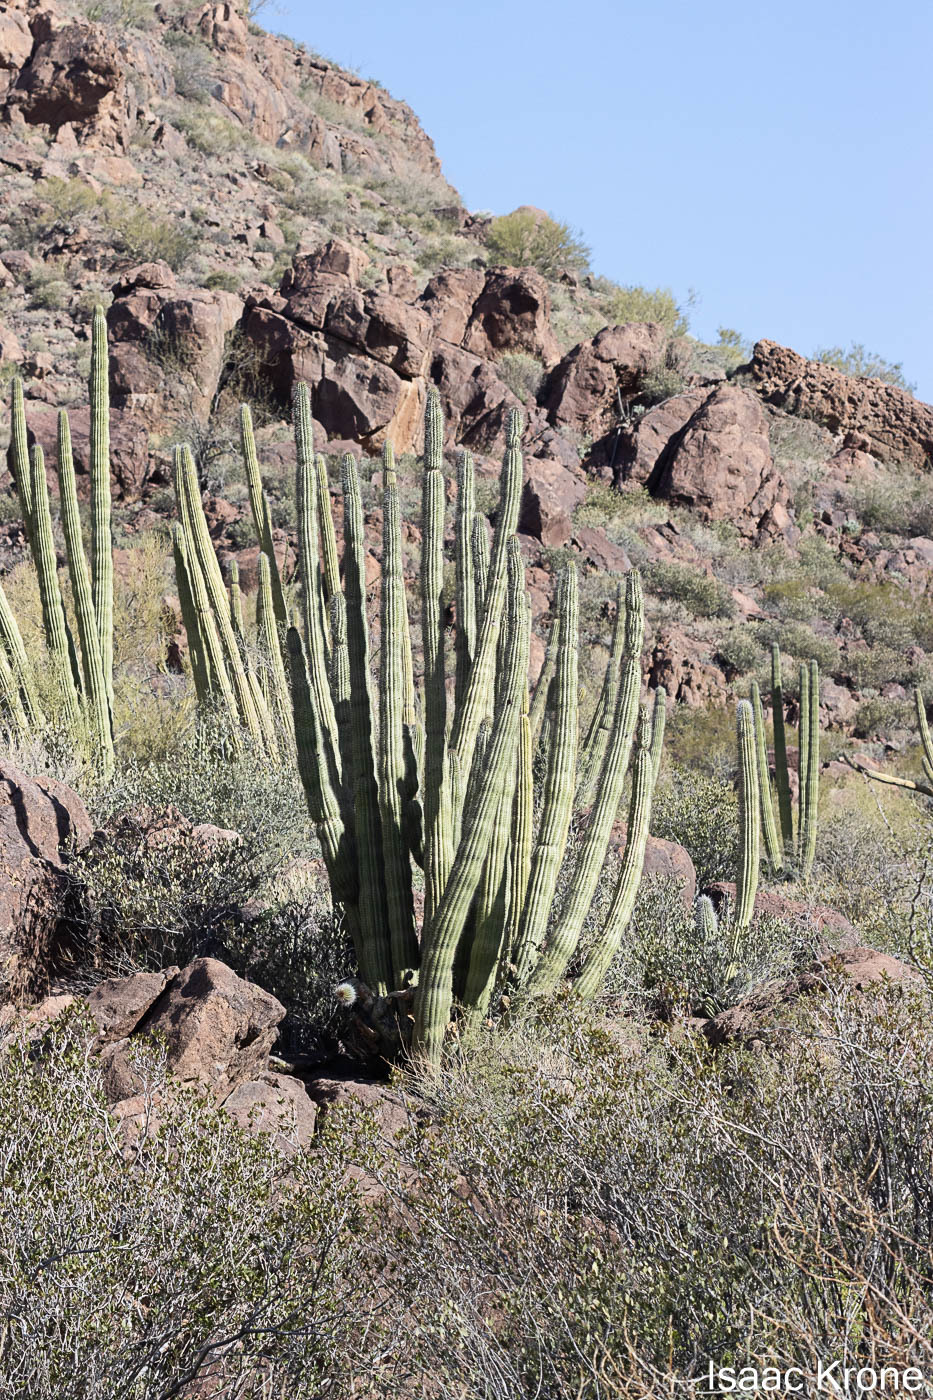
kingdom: Plantae
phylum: Tracheophyta
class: Magnoliopsida
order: Caryophyllales
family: Cactaceae
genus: Stenocereus
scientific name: Stenocereus thurberi
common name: Organ pipe cactus
